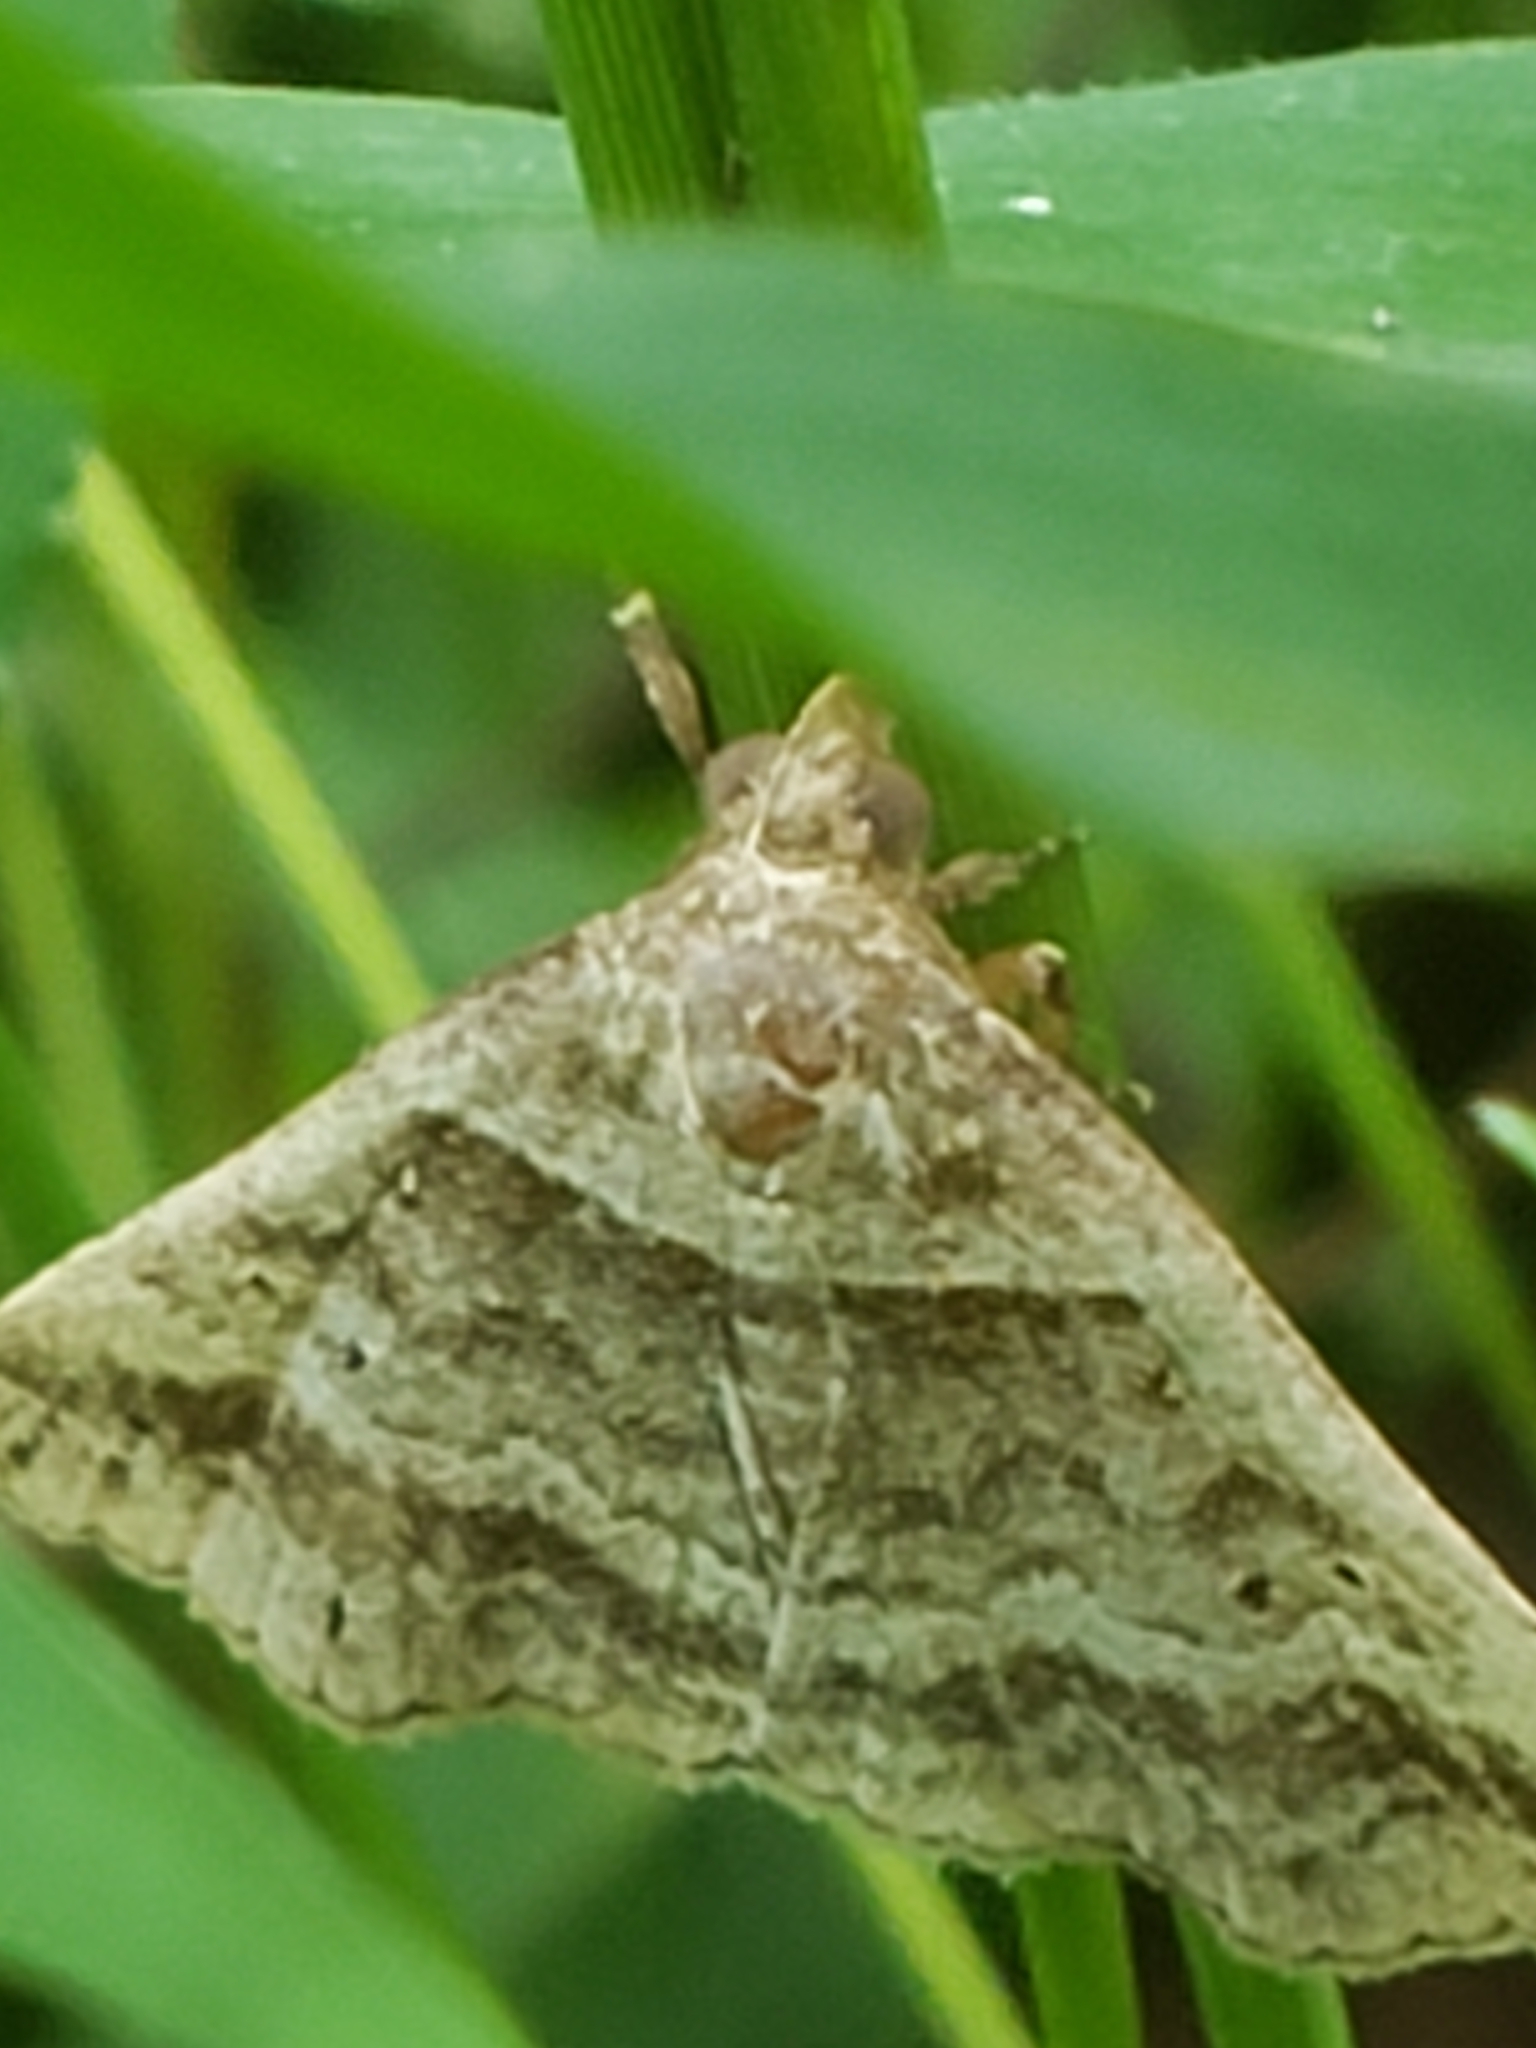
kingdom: Animalia
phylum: Arthropoda
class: Insecta
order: Lepidoptera
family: Erebidae
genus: Phaeolita
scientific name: Phaeolita pyramusalis
